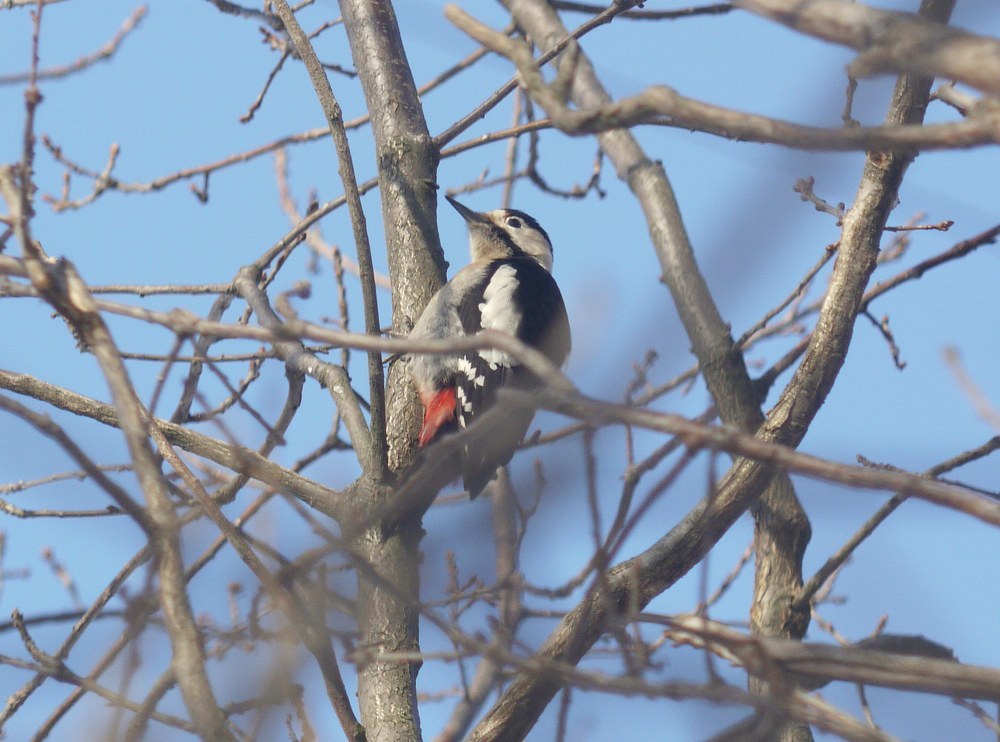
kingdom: Animalia
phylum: Chordata
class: Aves
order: Piciformes
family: Picidae
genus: Dendrocopos
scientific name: Dendrocopos major
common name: Great spotted woodpecker
